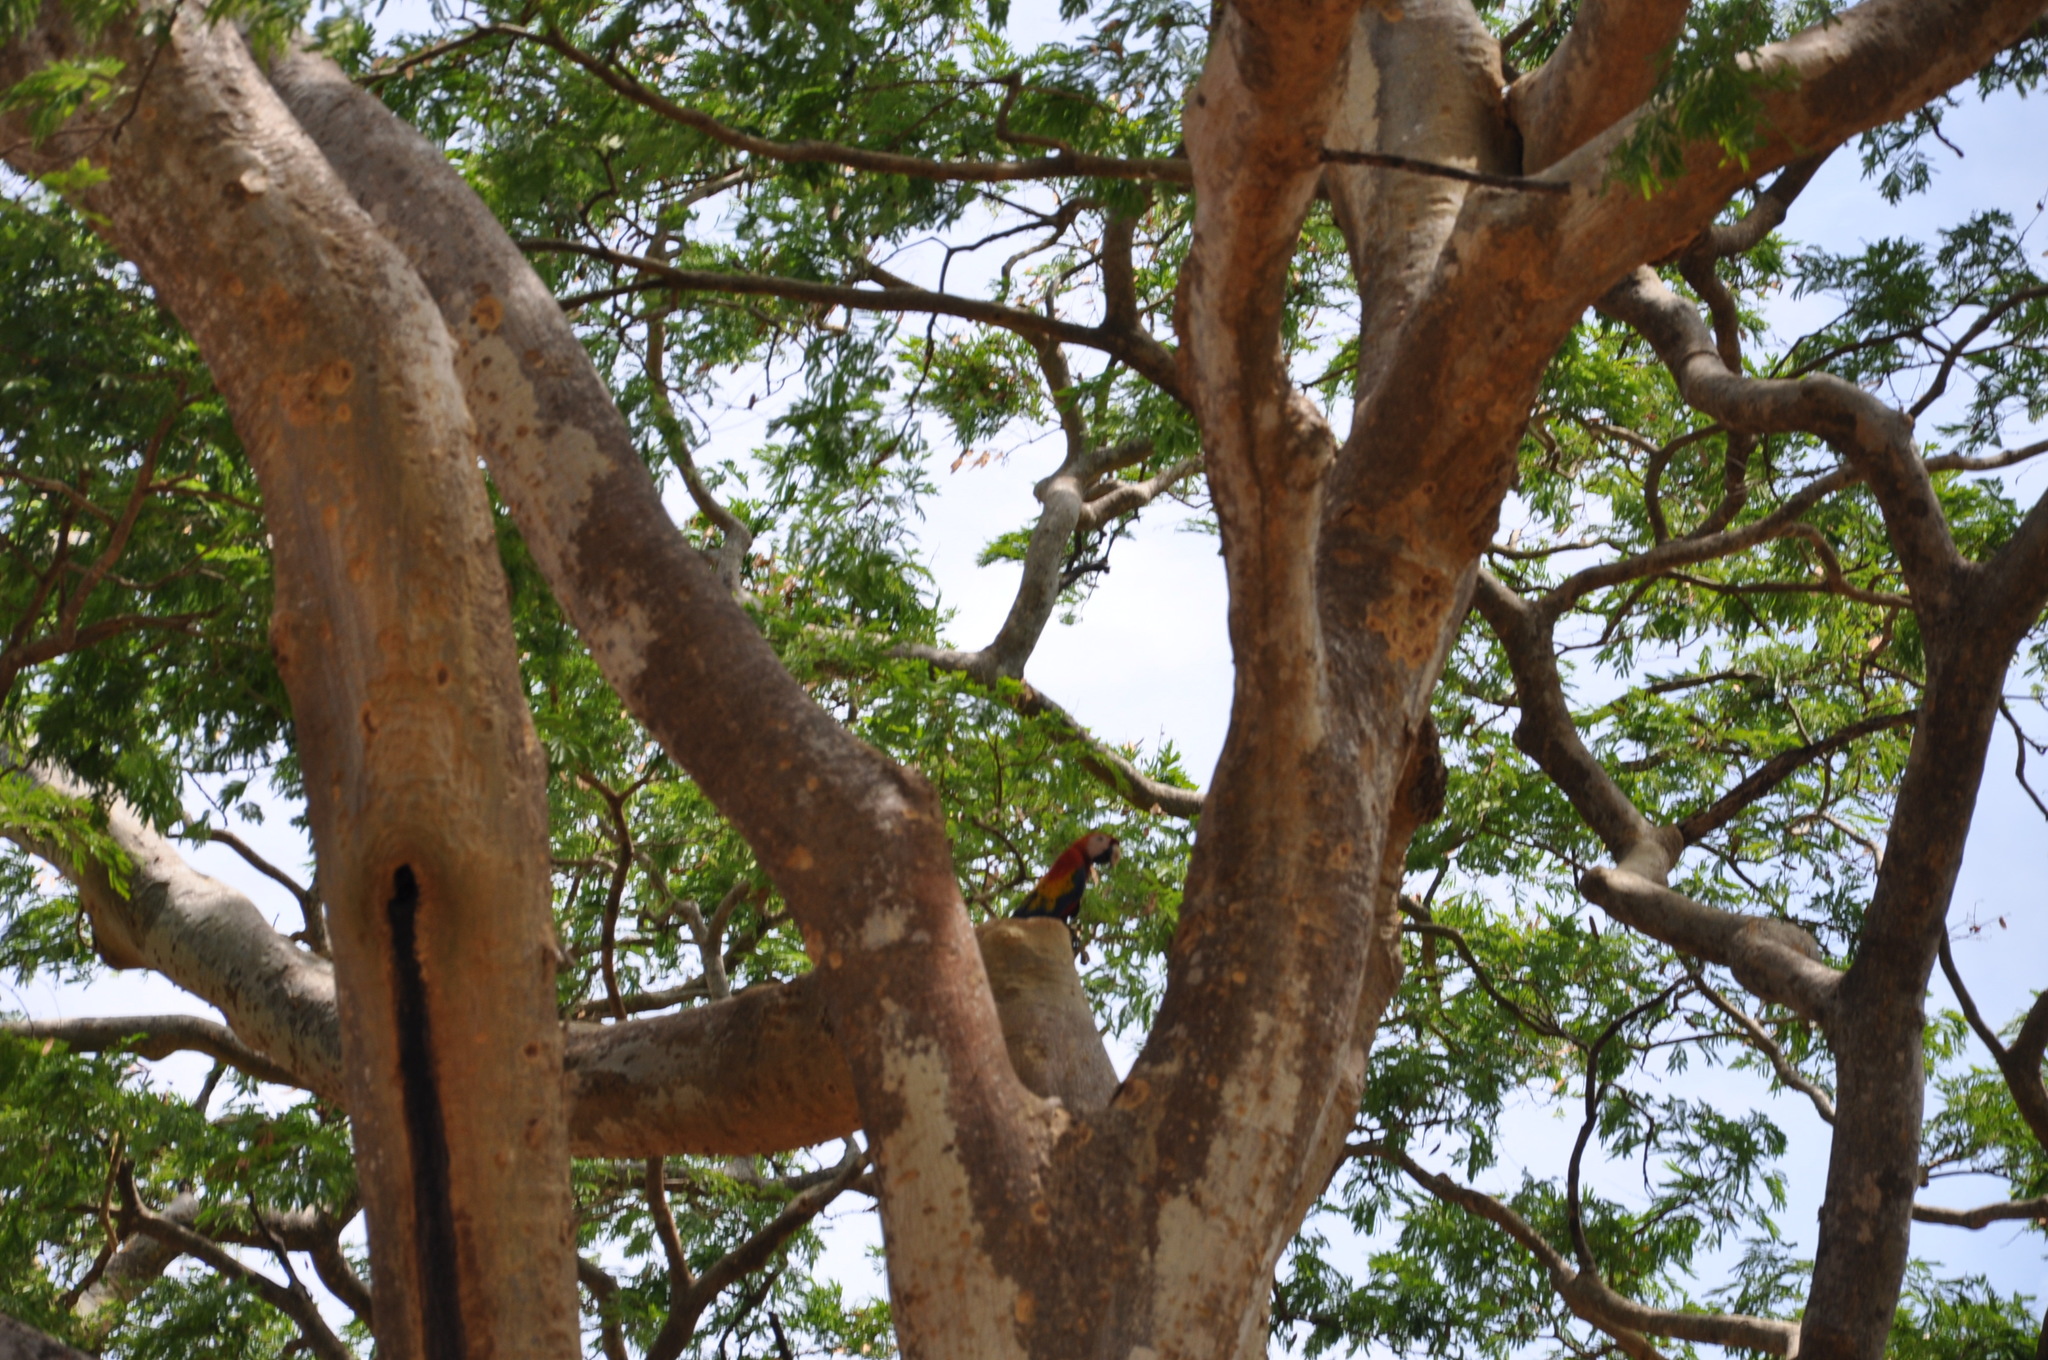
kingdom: Animalia
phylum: Chordata
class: Aves
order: Psittaciformes
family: Psittacidae
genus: Ara
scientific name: Ara macao
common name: Scarlet macaw
